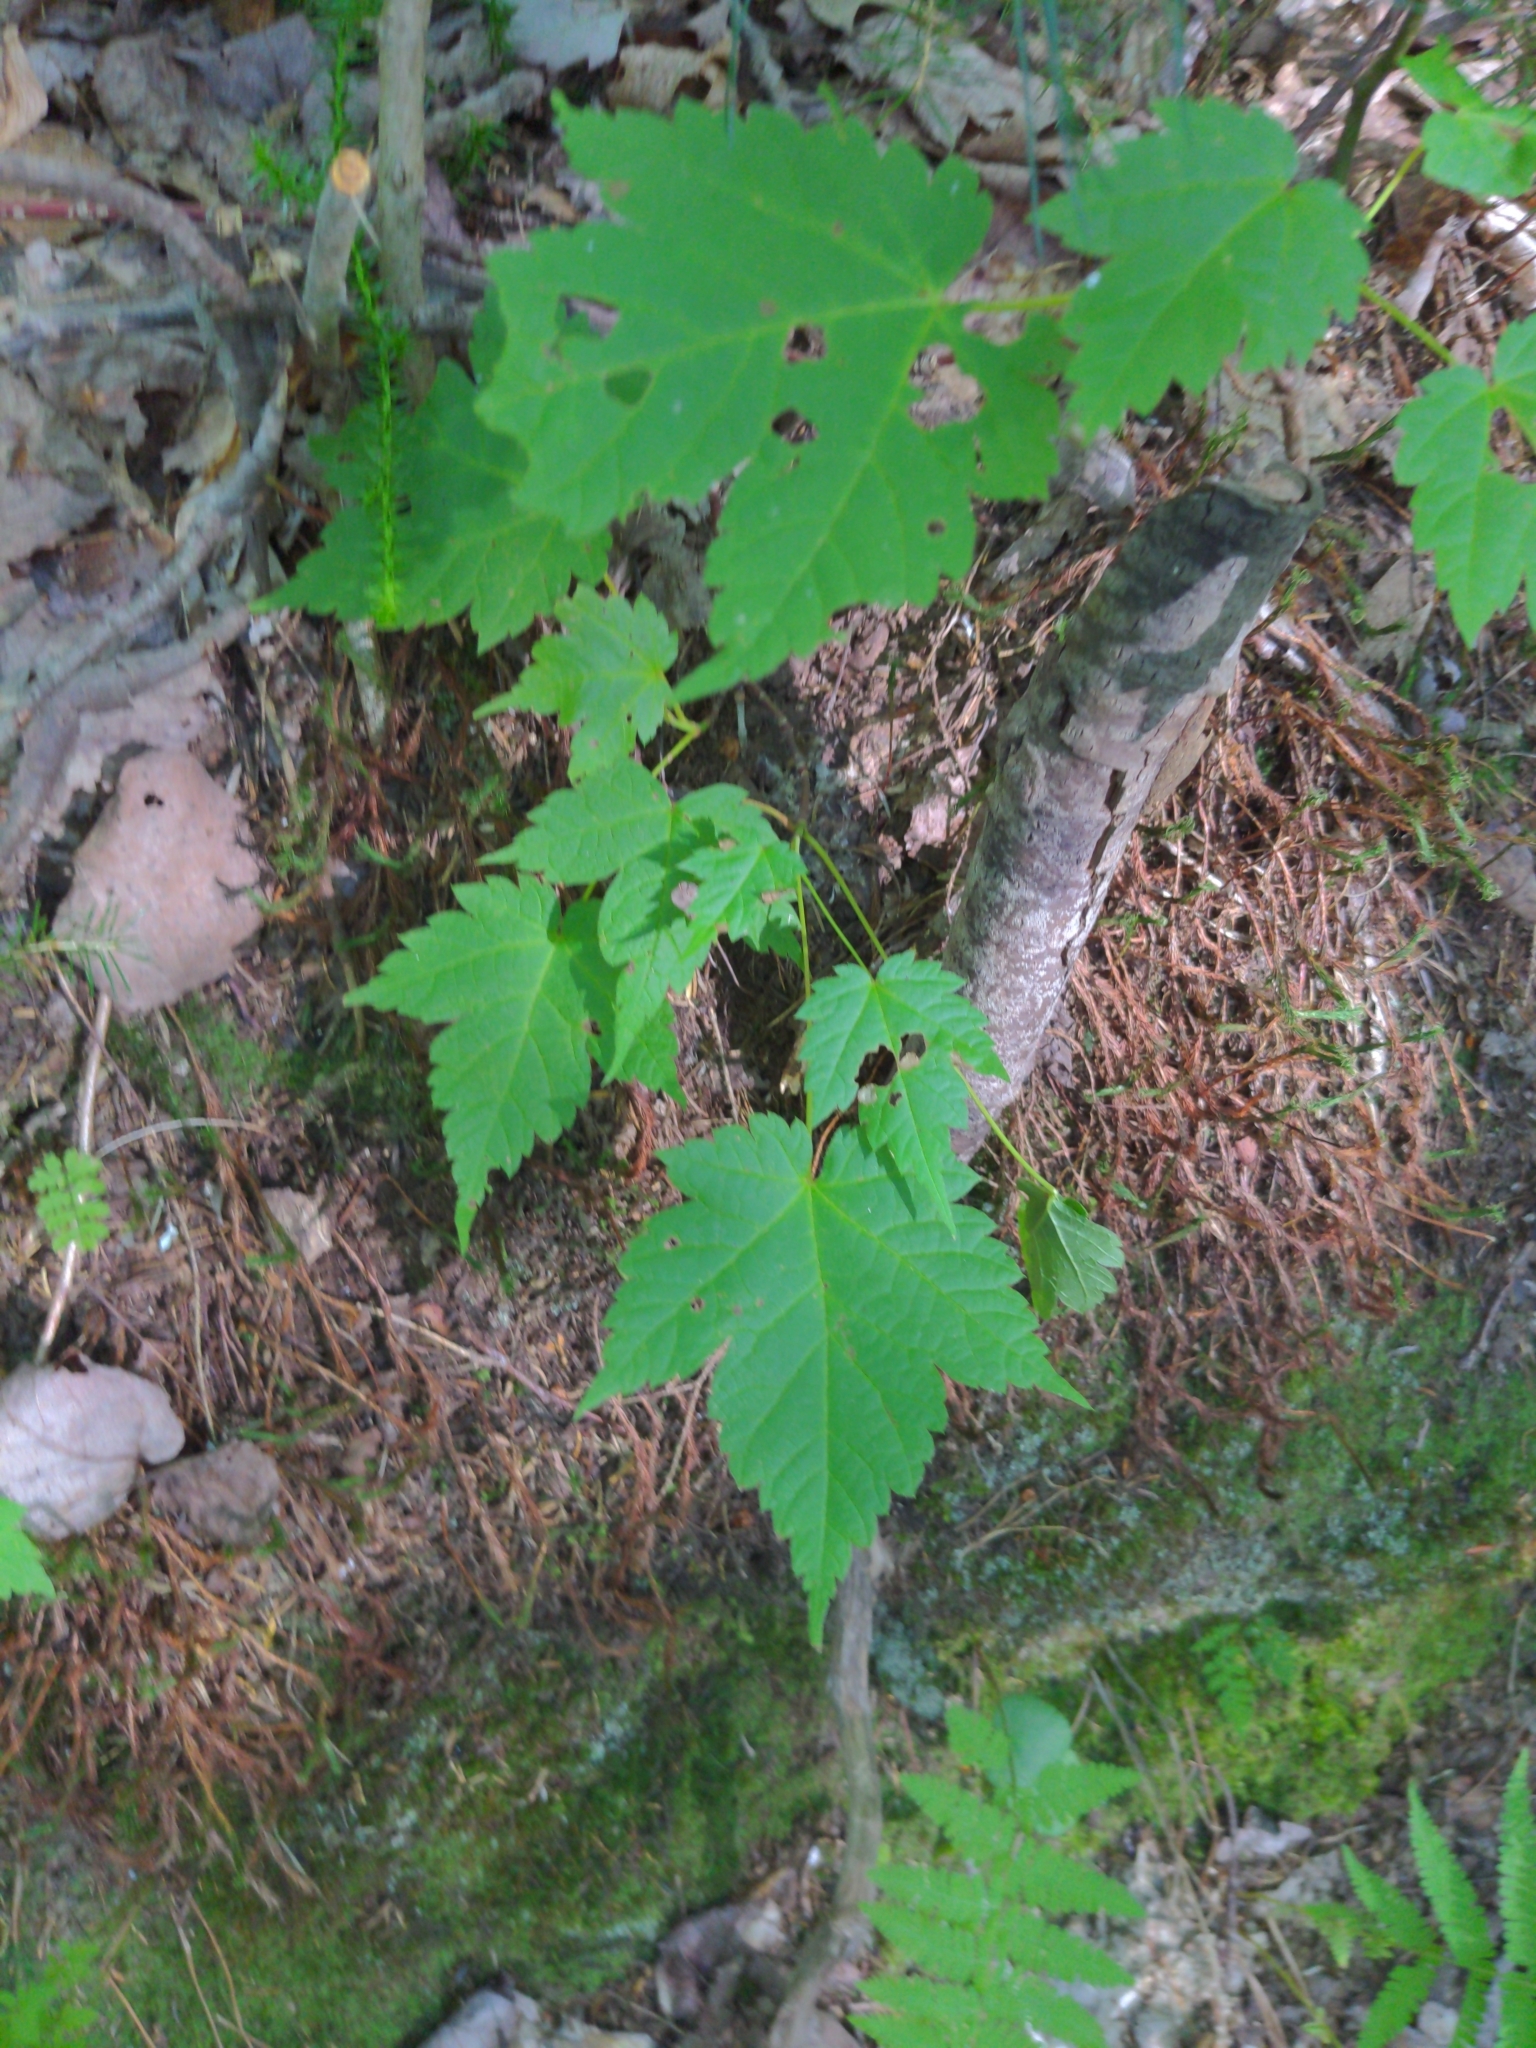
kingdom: Plantae
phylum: Tracheophyta
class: Magnoliopsida
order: Sapindales
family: Sapindaceae
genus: Acer
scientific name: Acer rubrum
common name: Red maple
